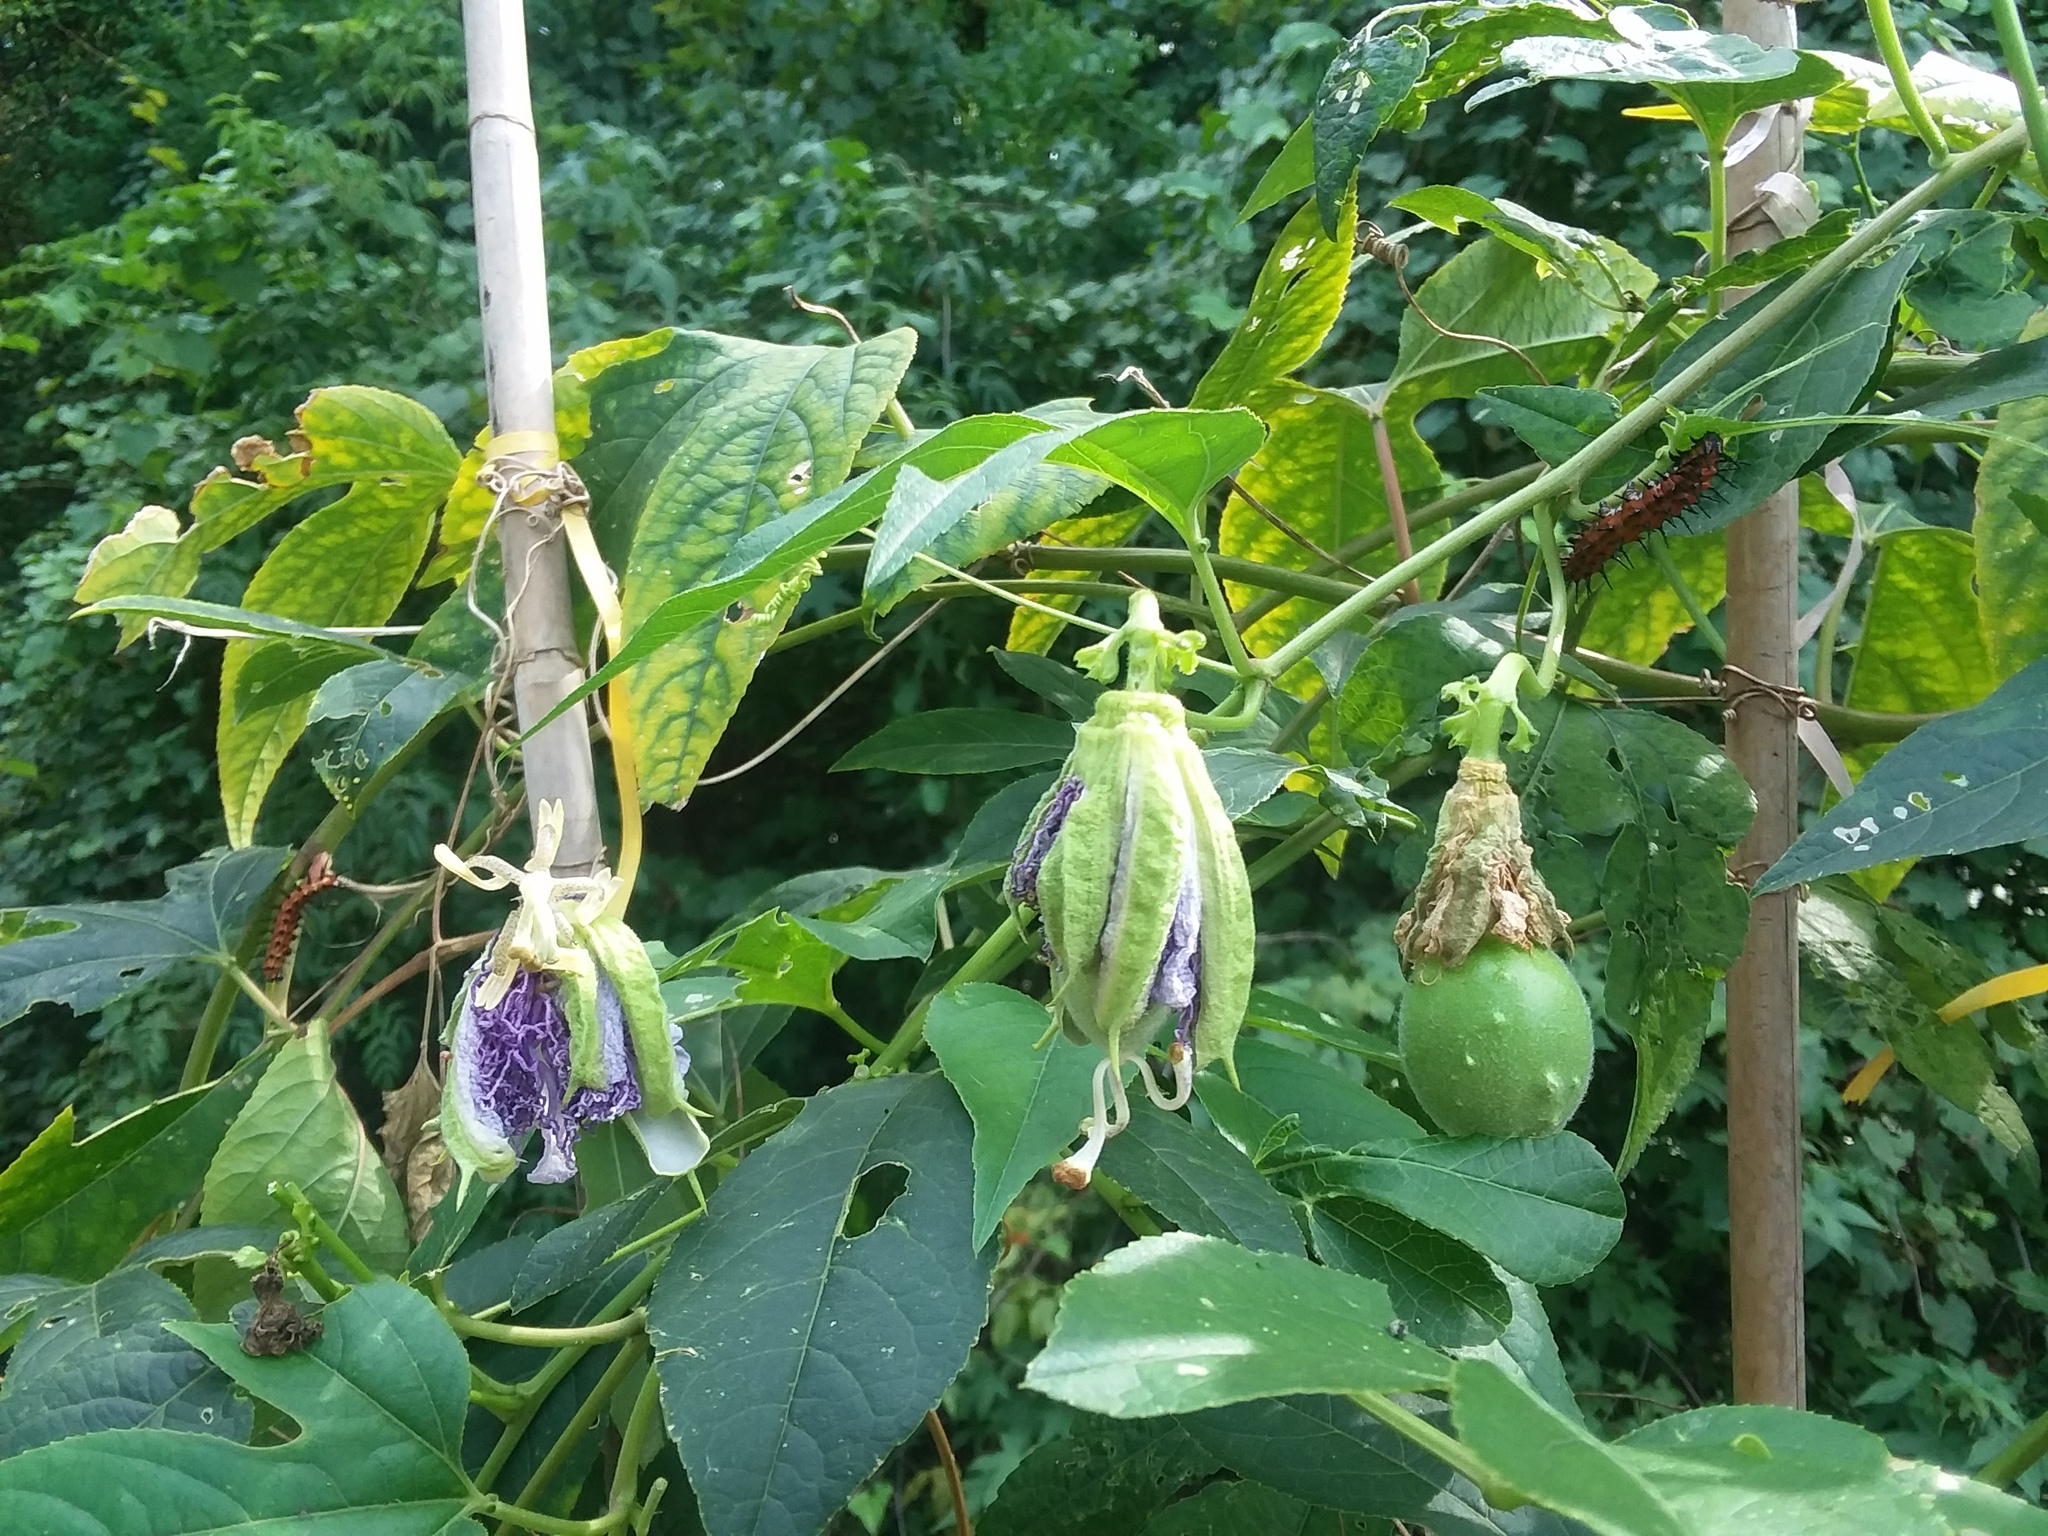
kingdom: Animalia
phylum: Arthropoda
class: Insecta
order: Lepidoptera
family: Nymphalidae
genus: Dione
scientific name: Dione vanillae
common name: Gulf fritillary
